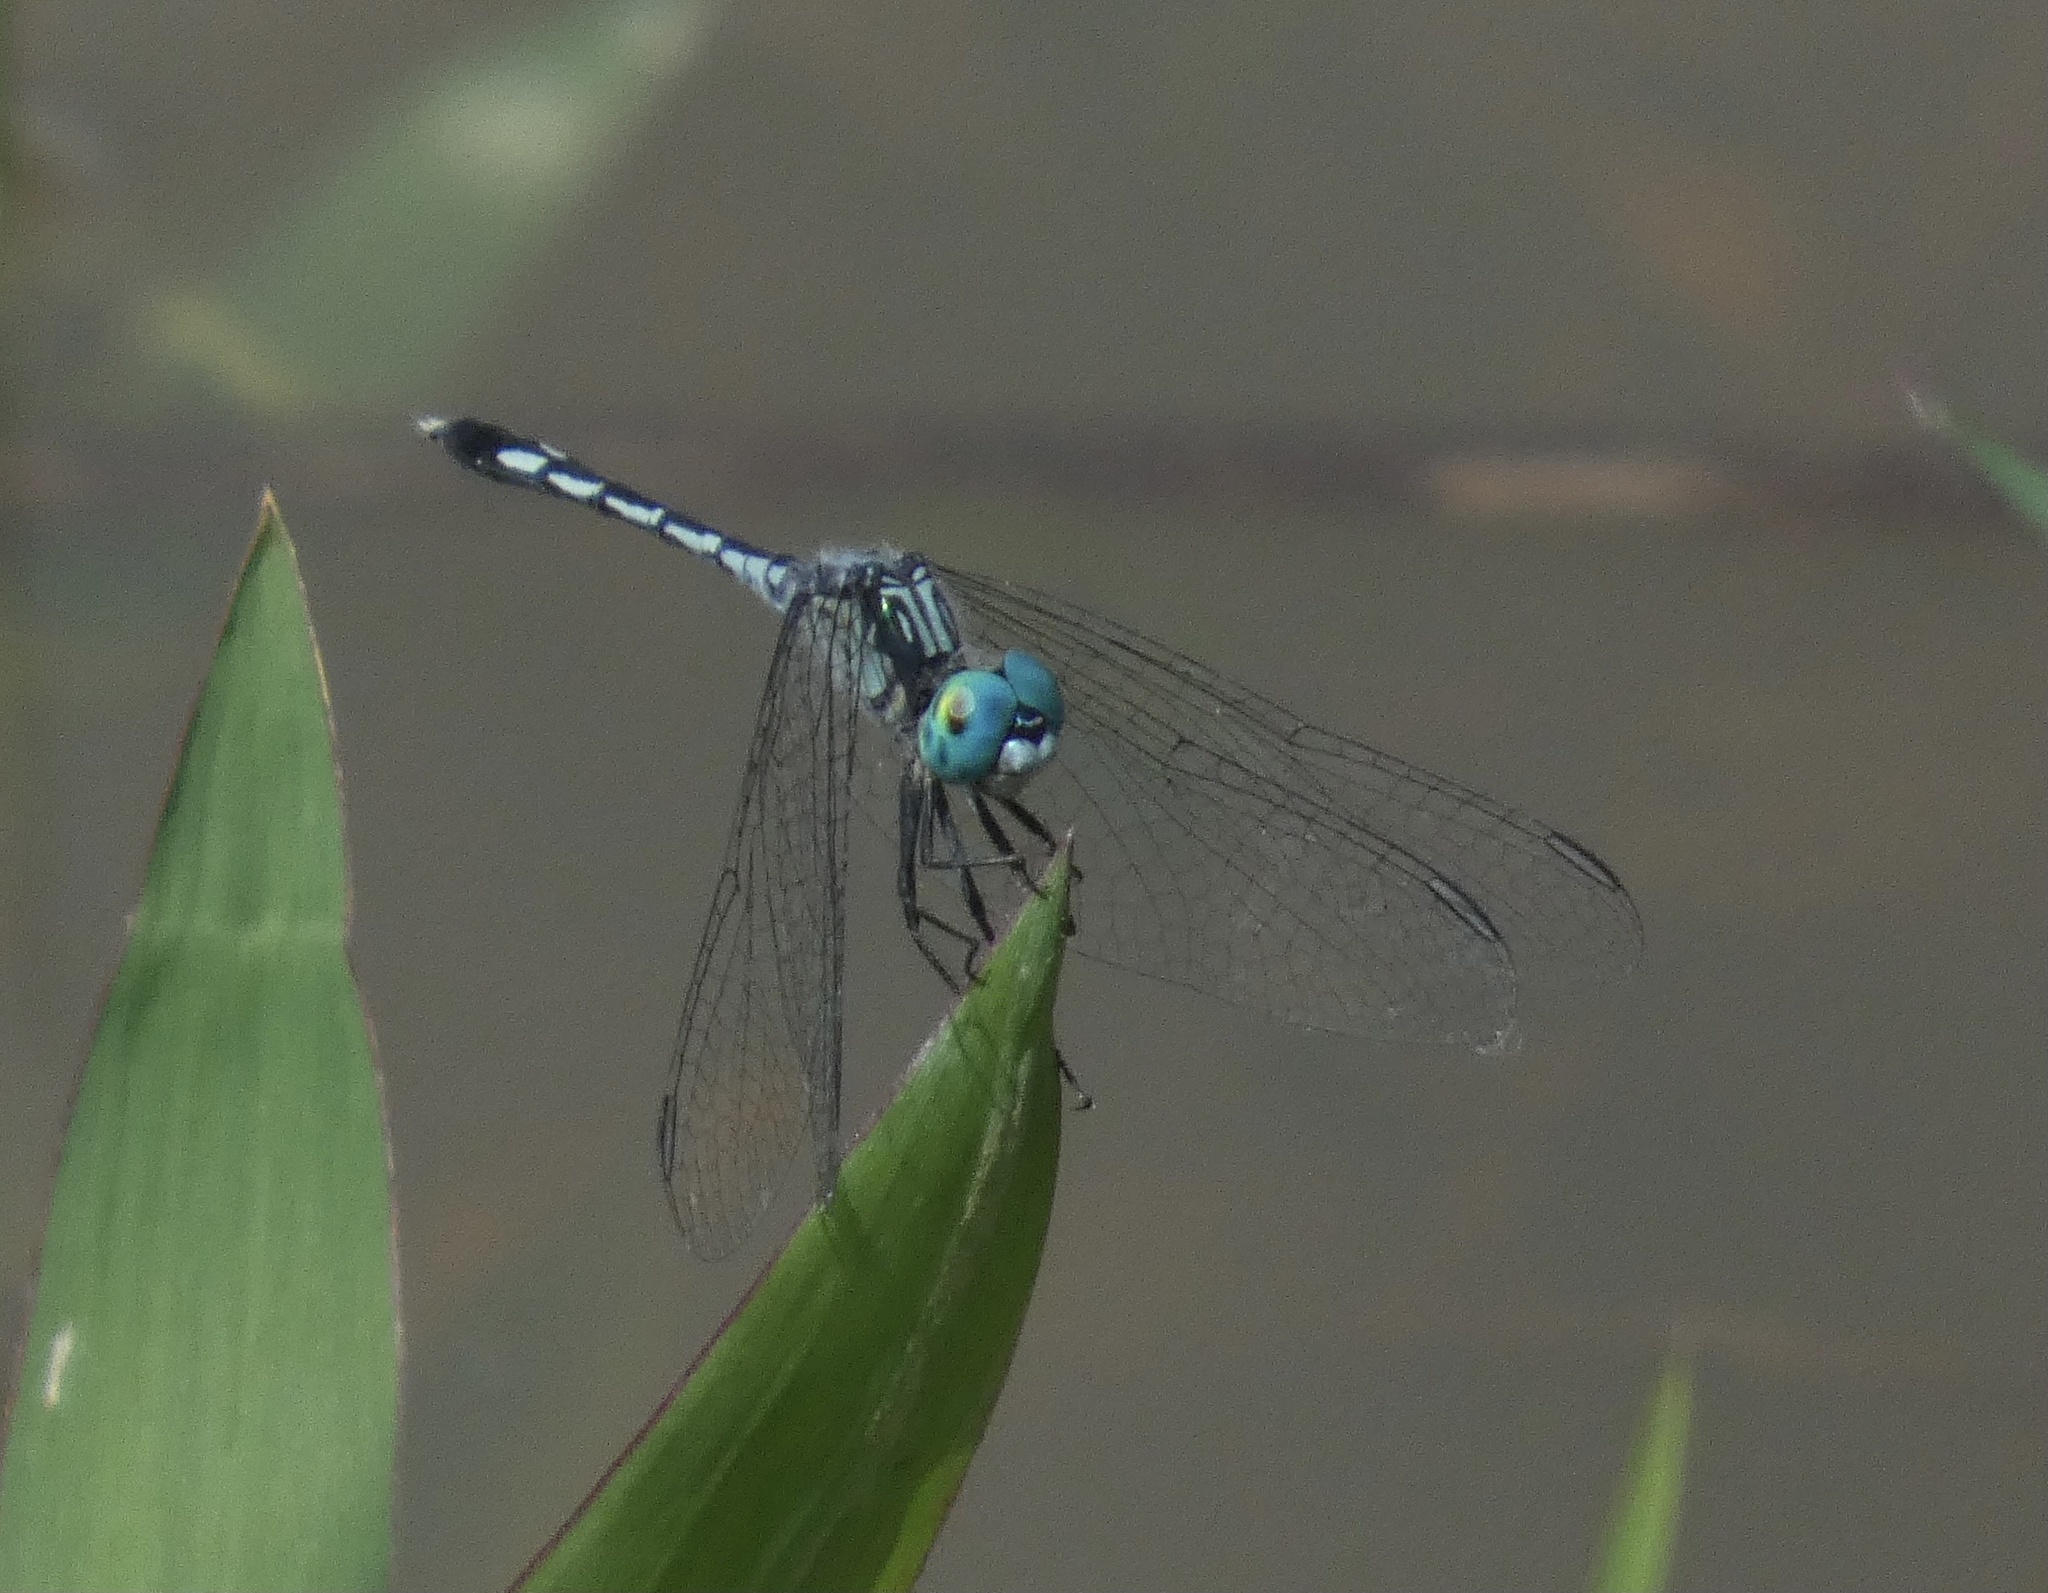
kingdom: Animalia
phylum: Arthropoda
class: Insecta
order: Odonata
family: Libellulidae
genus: Micrathyria
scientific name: Micrathyria spuria
